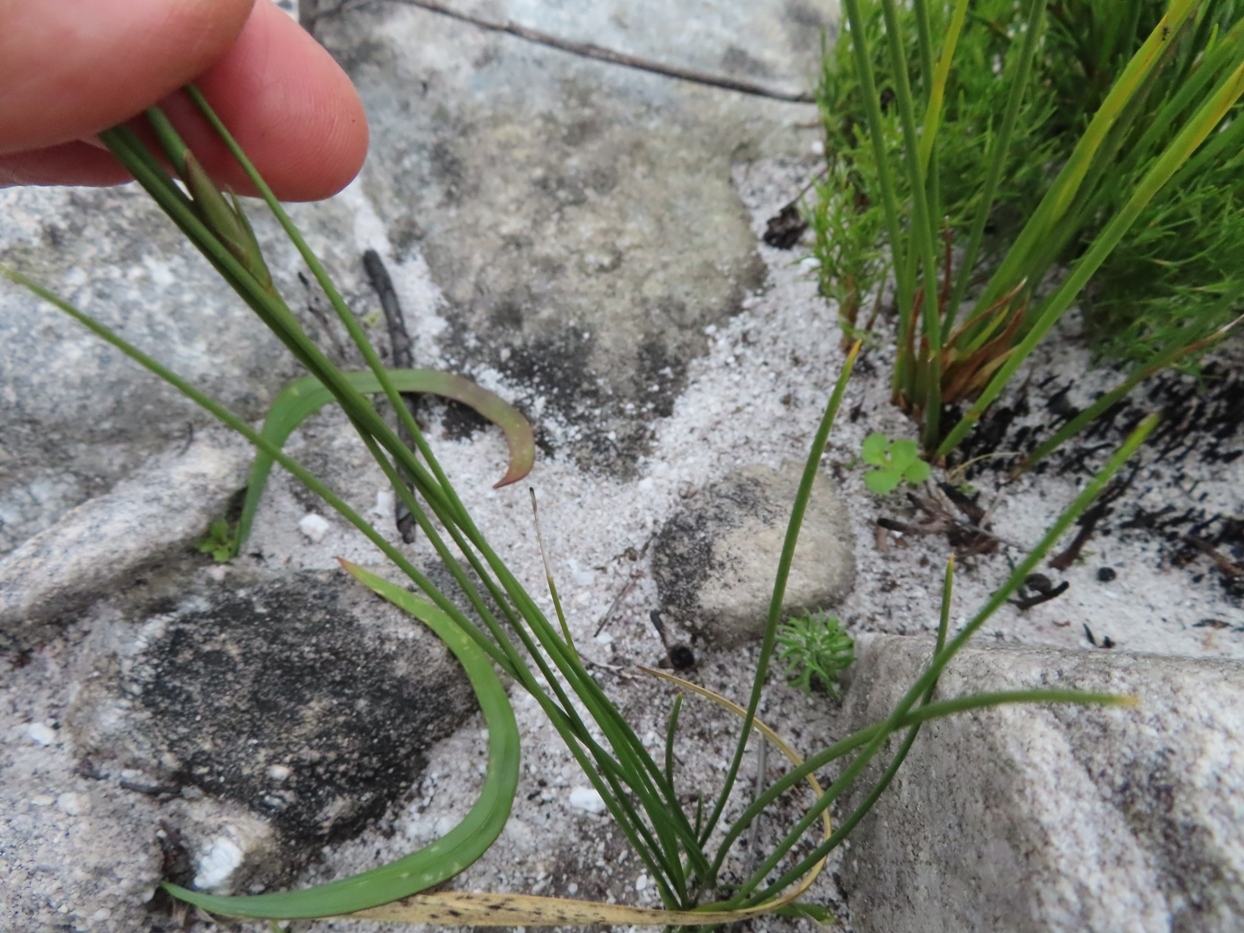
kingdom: Plantae
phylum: Tracheophyta
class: Liliopsida
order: Asparagales
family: Iridaceae
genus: Bobartia
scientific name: Bobartia filiformis
